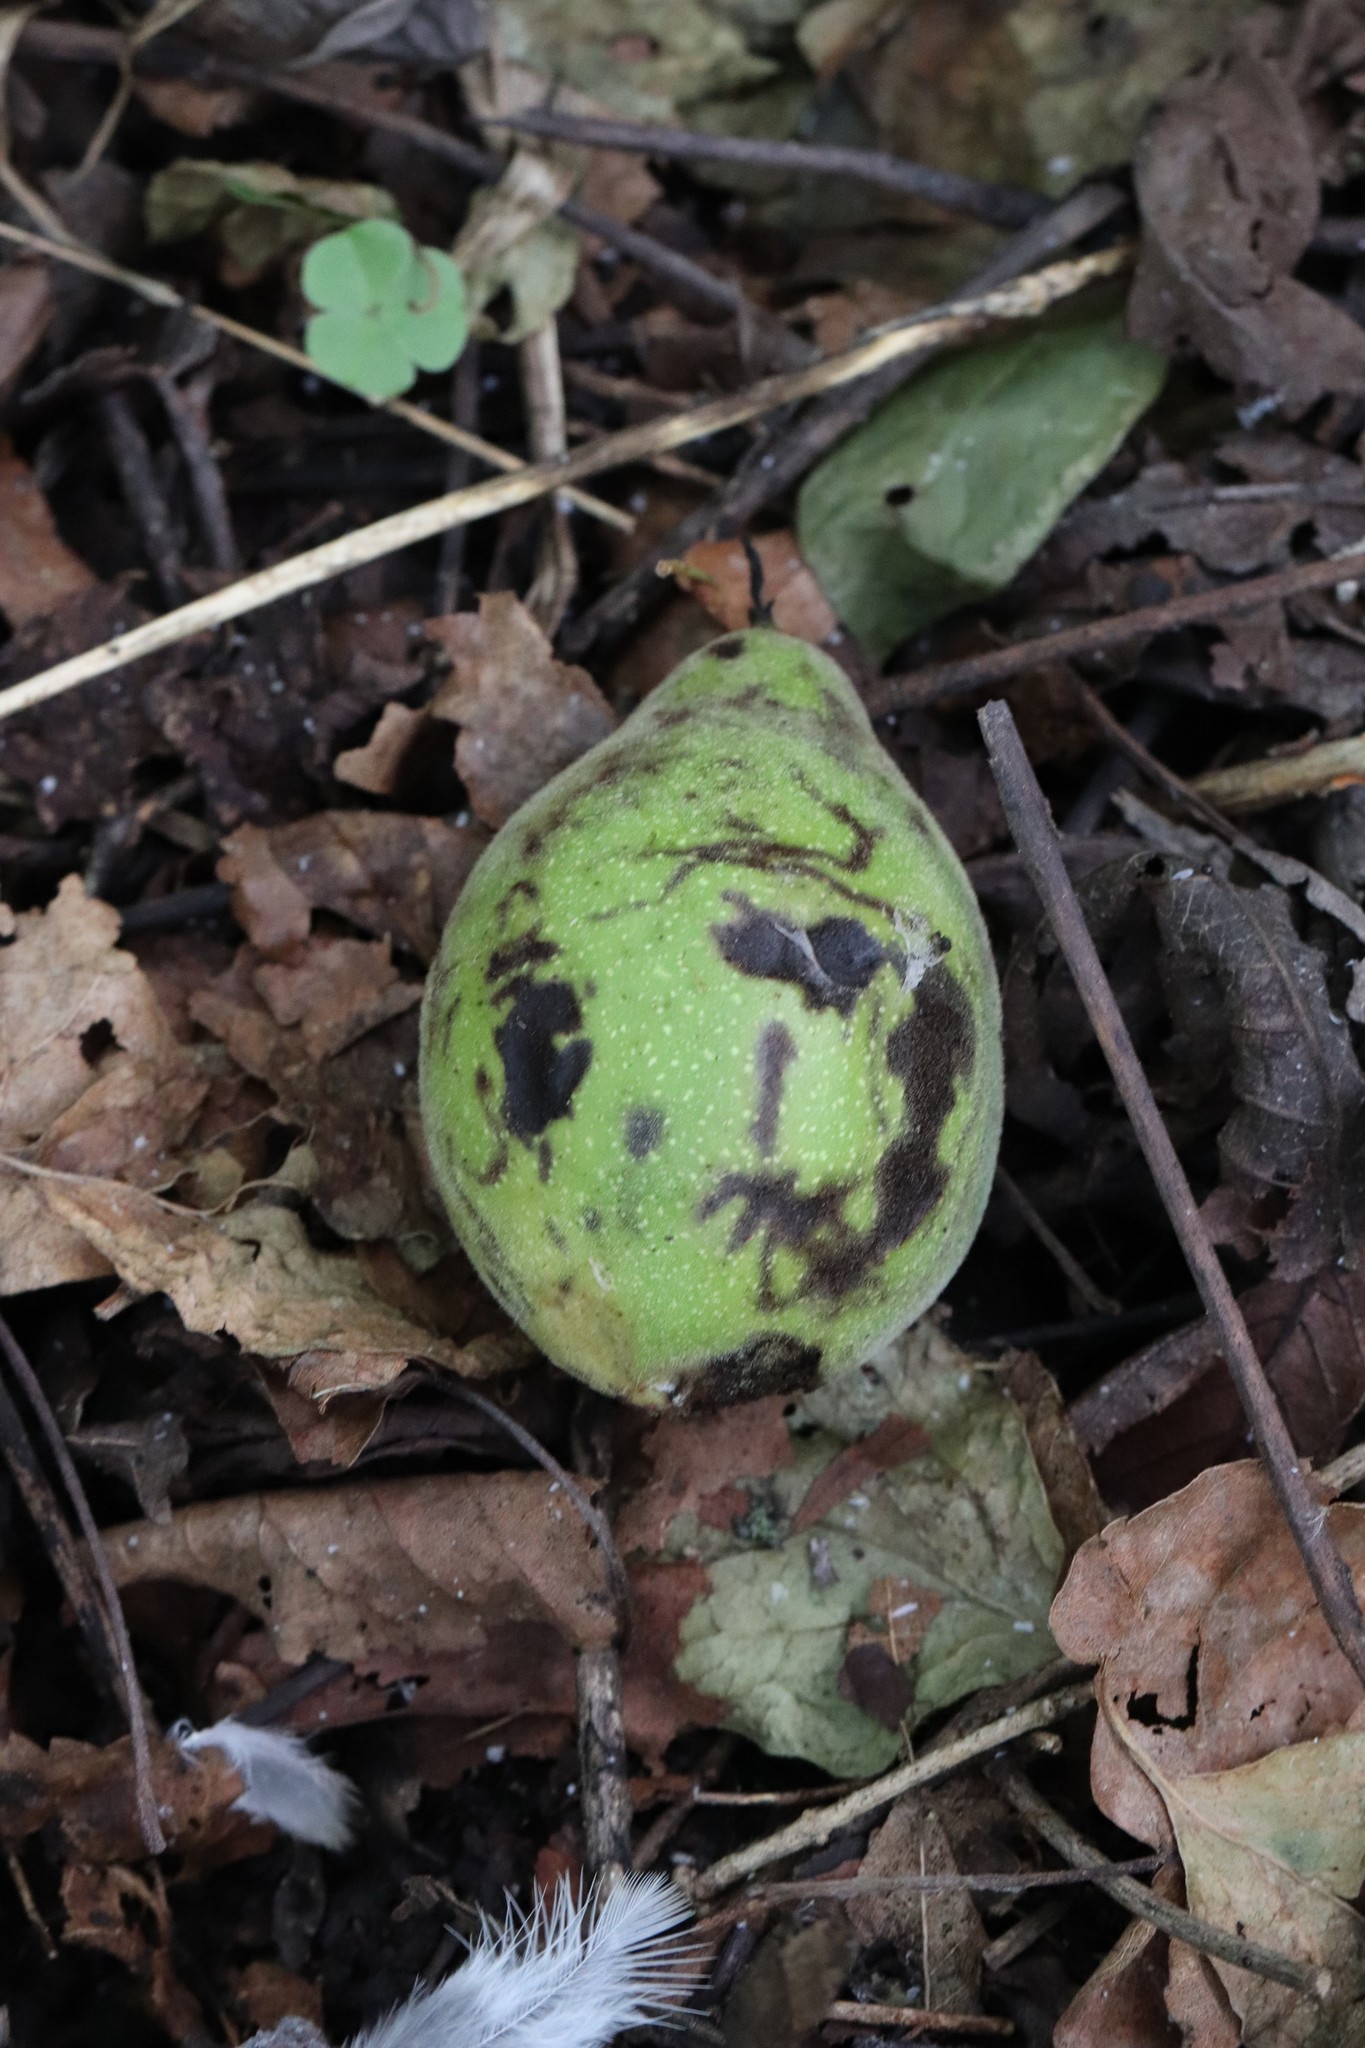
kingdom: Plantae
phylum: Tracheophyta
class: Magnoliopsida
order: Fagales
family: Juglandaceae
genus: Juglans
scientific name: Juglans mandshurica
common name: Manchurian walnut
